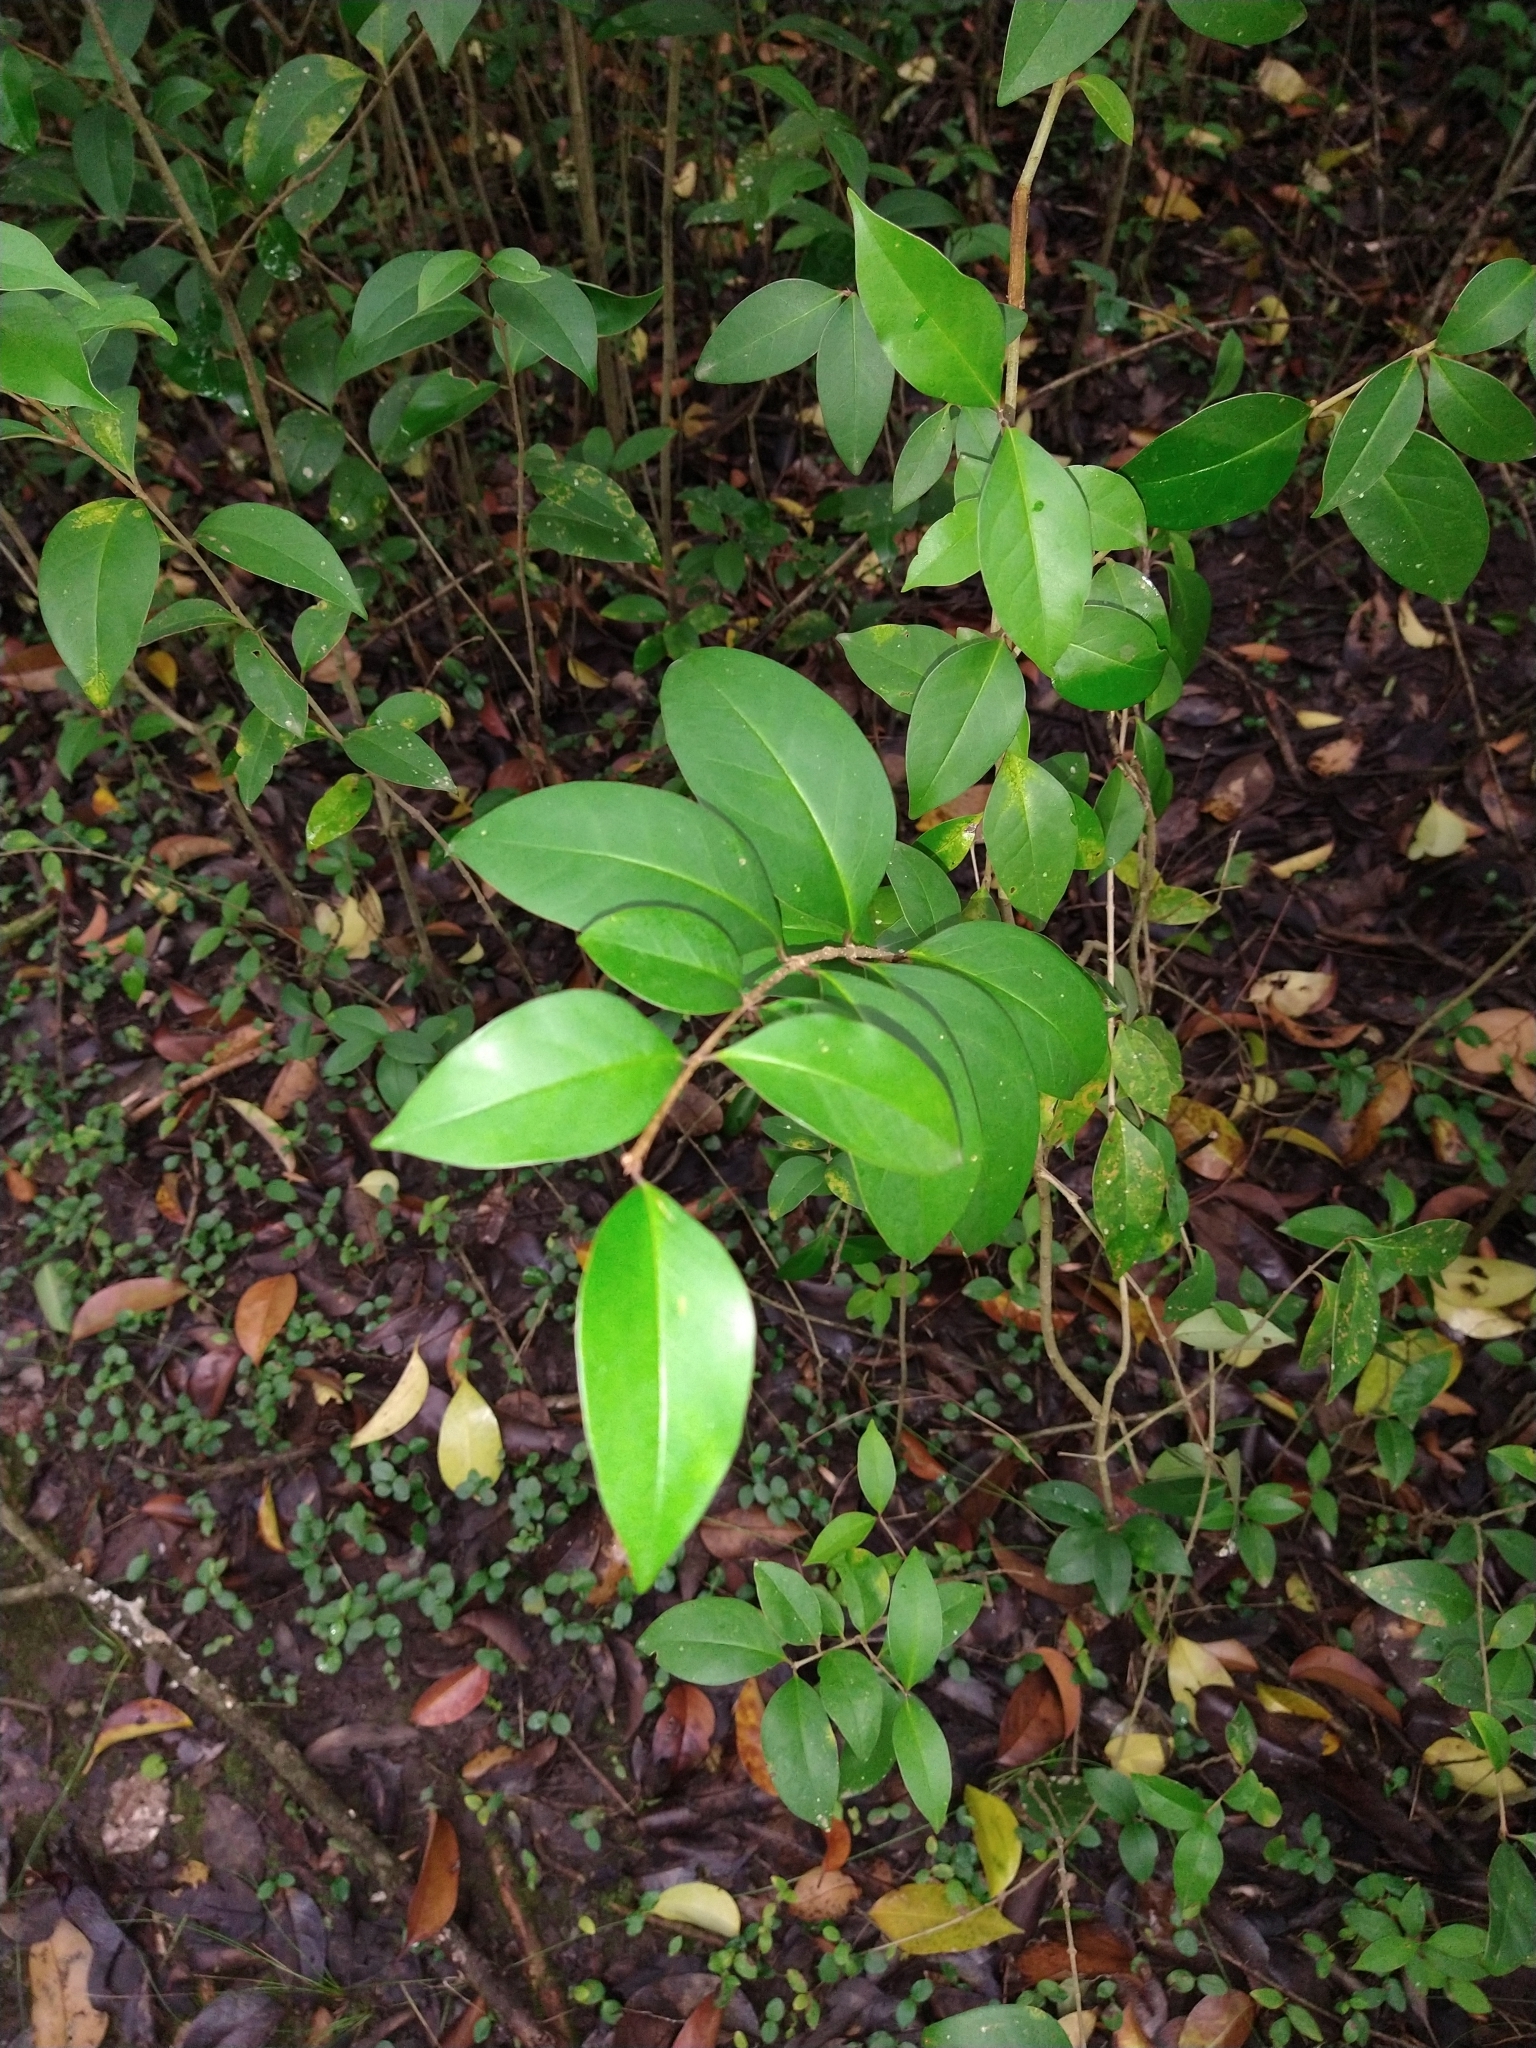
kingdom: Plantae
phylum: Tracheophyta
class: Magnoliopsida
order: Lamiales
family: Oleaceae
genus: Ligustrum
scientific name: Ligustrum lucidum
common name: Glossy privet
